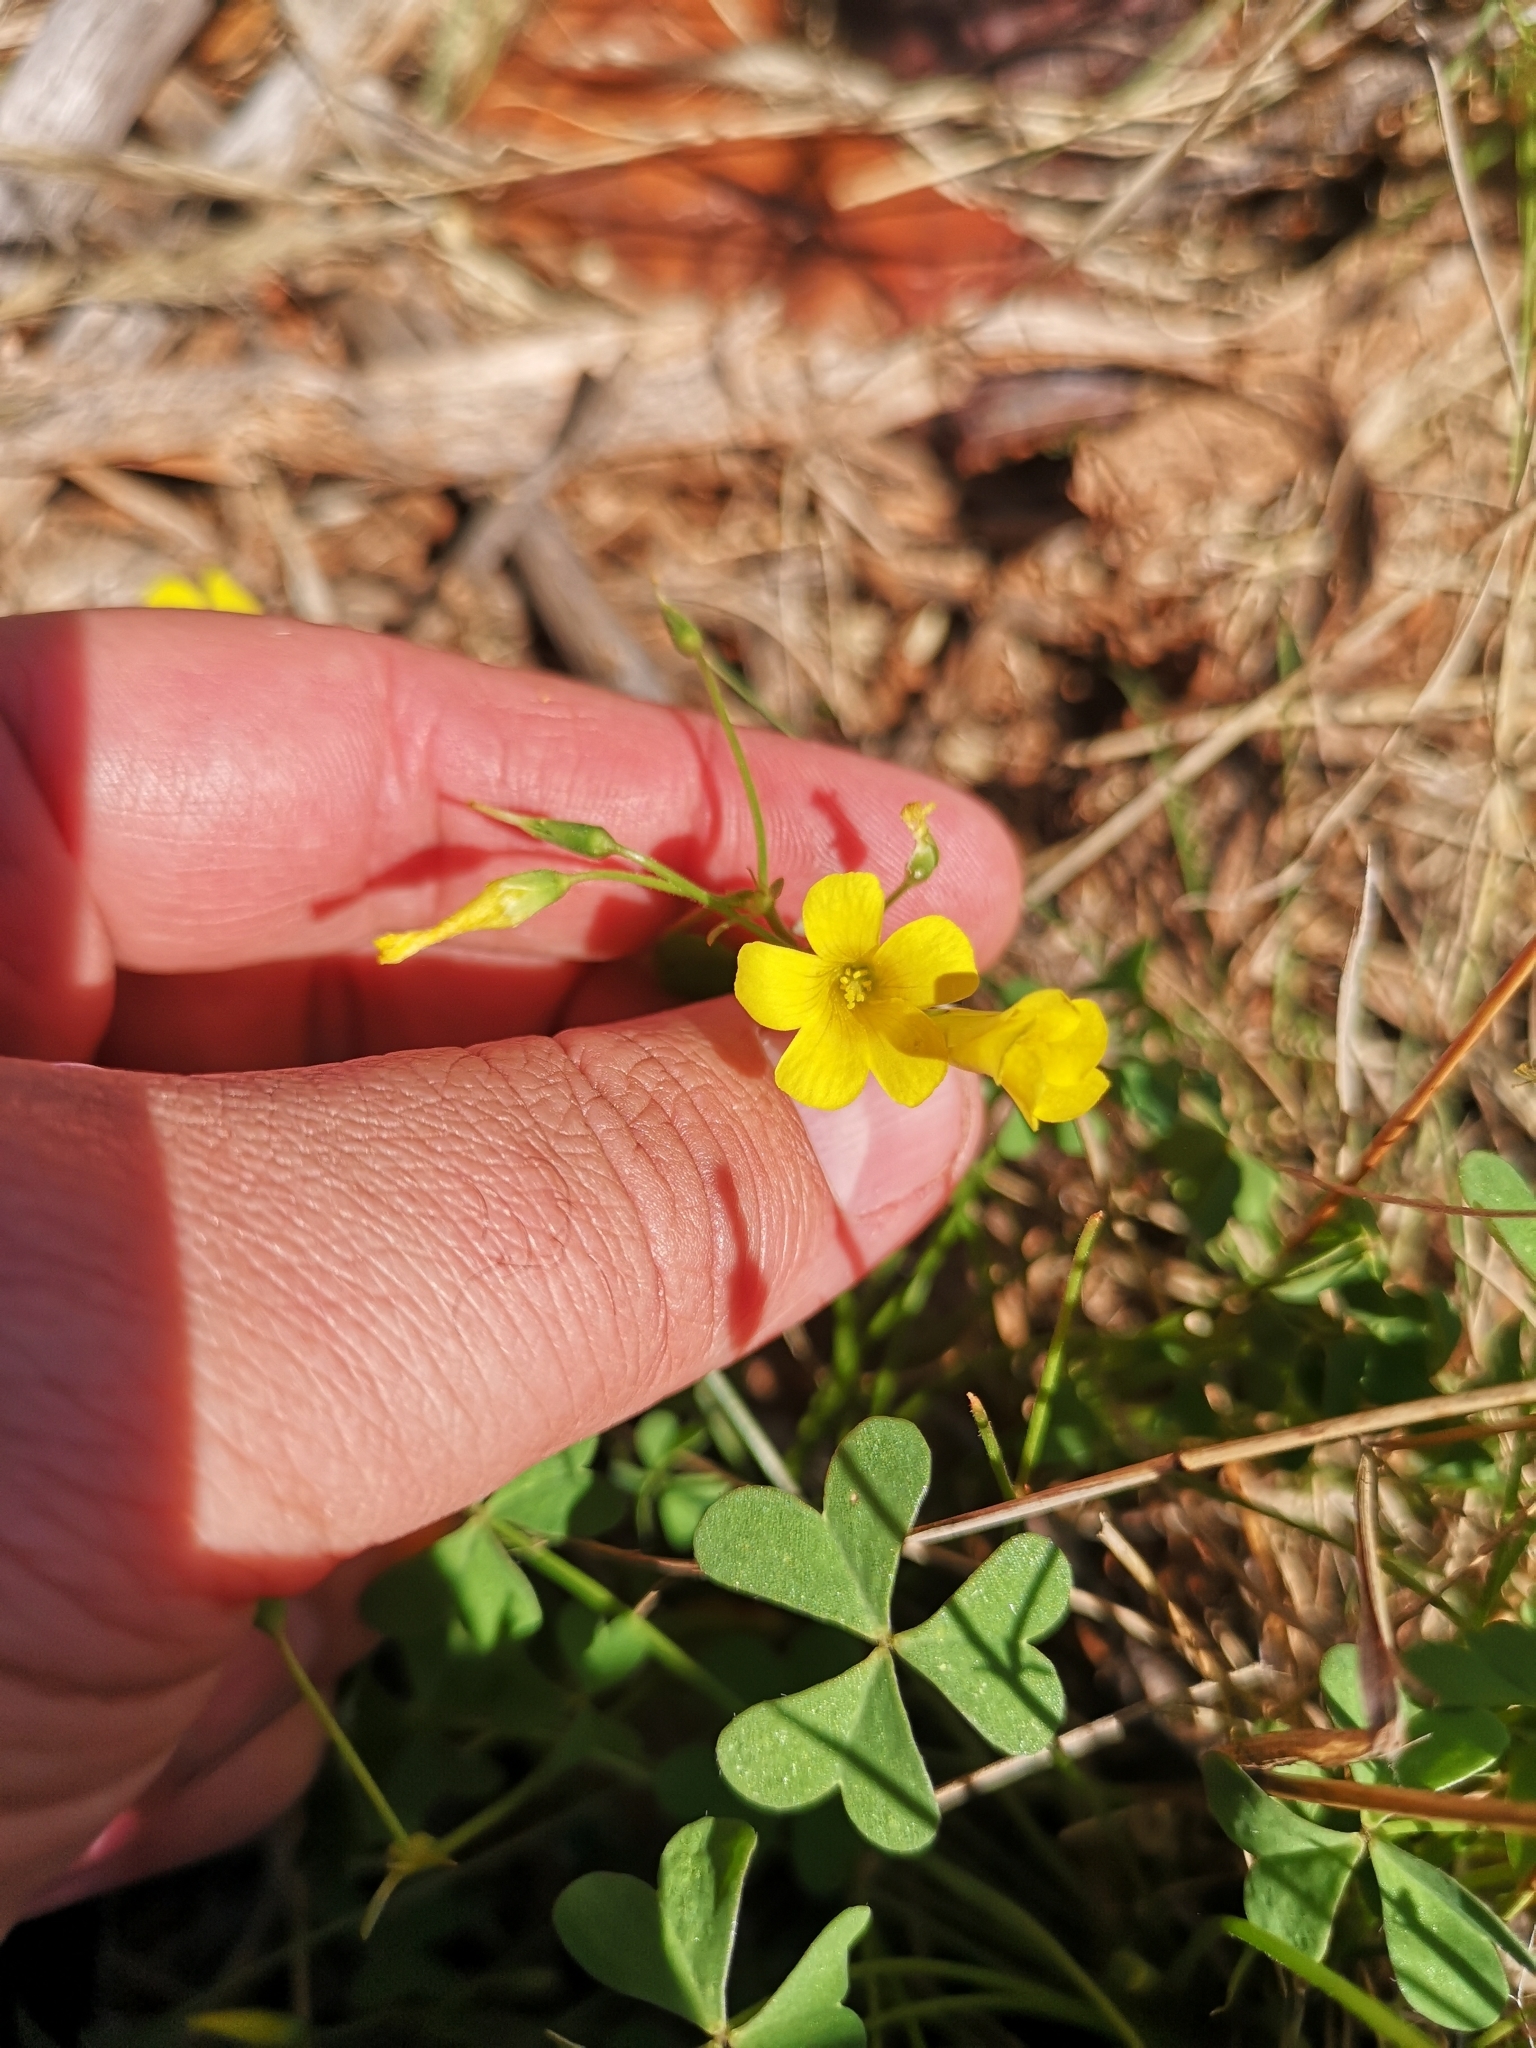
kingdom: Plantae
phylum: Tracheophyta
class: Magnoliopsida
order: Oxalidales
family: Oxalidaceae
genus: Oxalis
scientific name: Oxalis haedulipes
